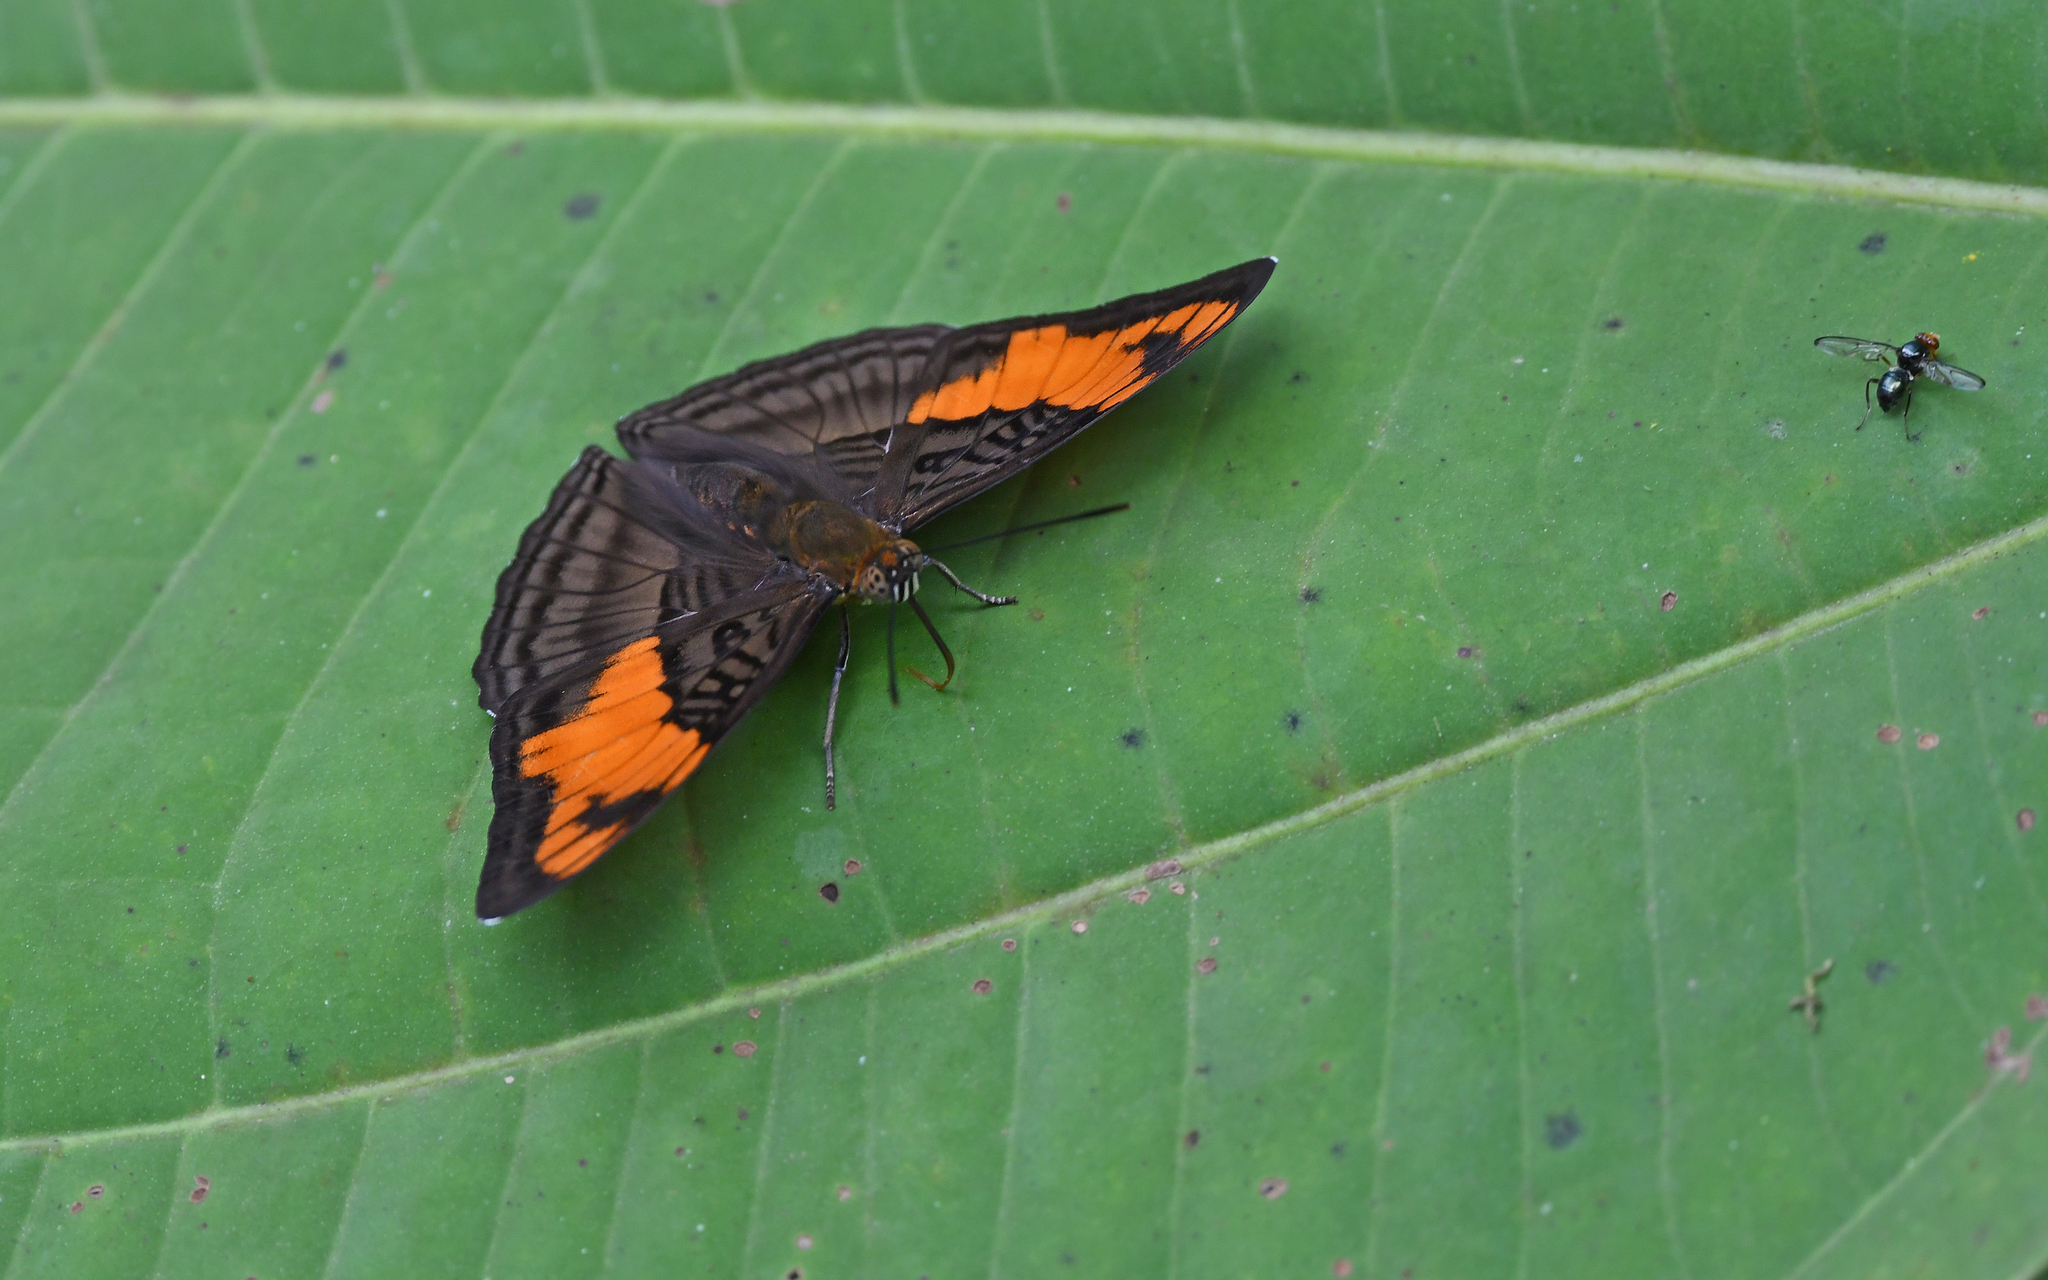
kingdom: Animalia
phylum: Arthropoda
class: Insecta
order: Lepidoptera
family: Nymphalidae
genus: Limenitis
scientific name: Limenitis mesentina
